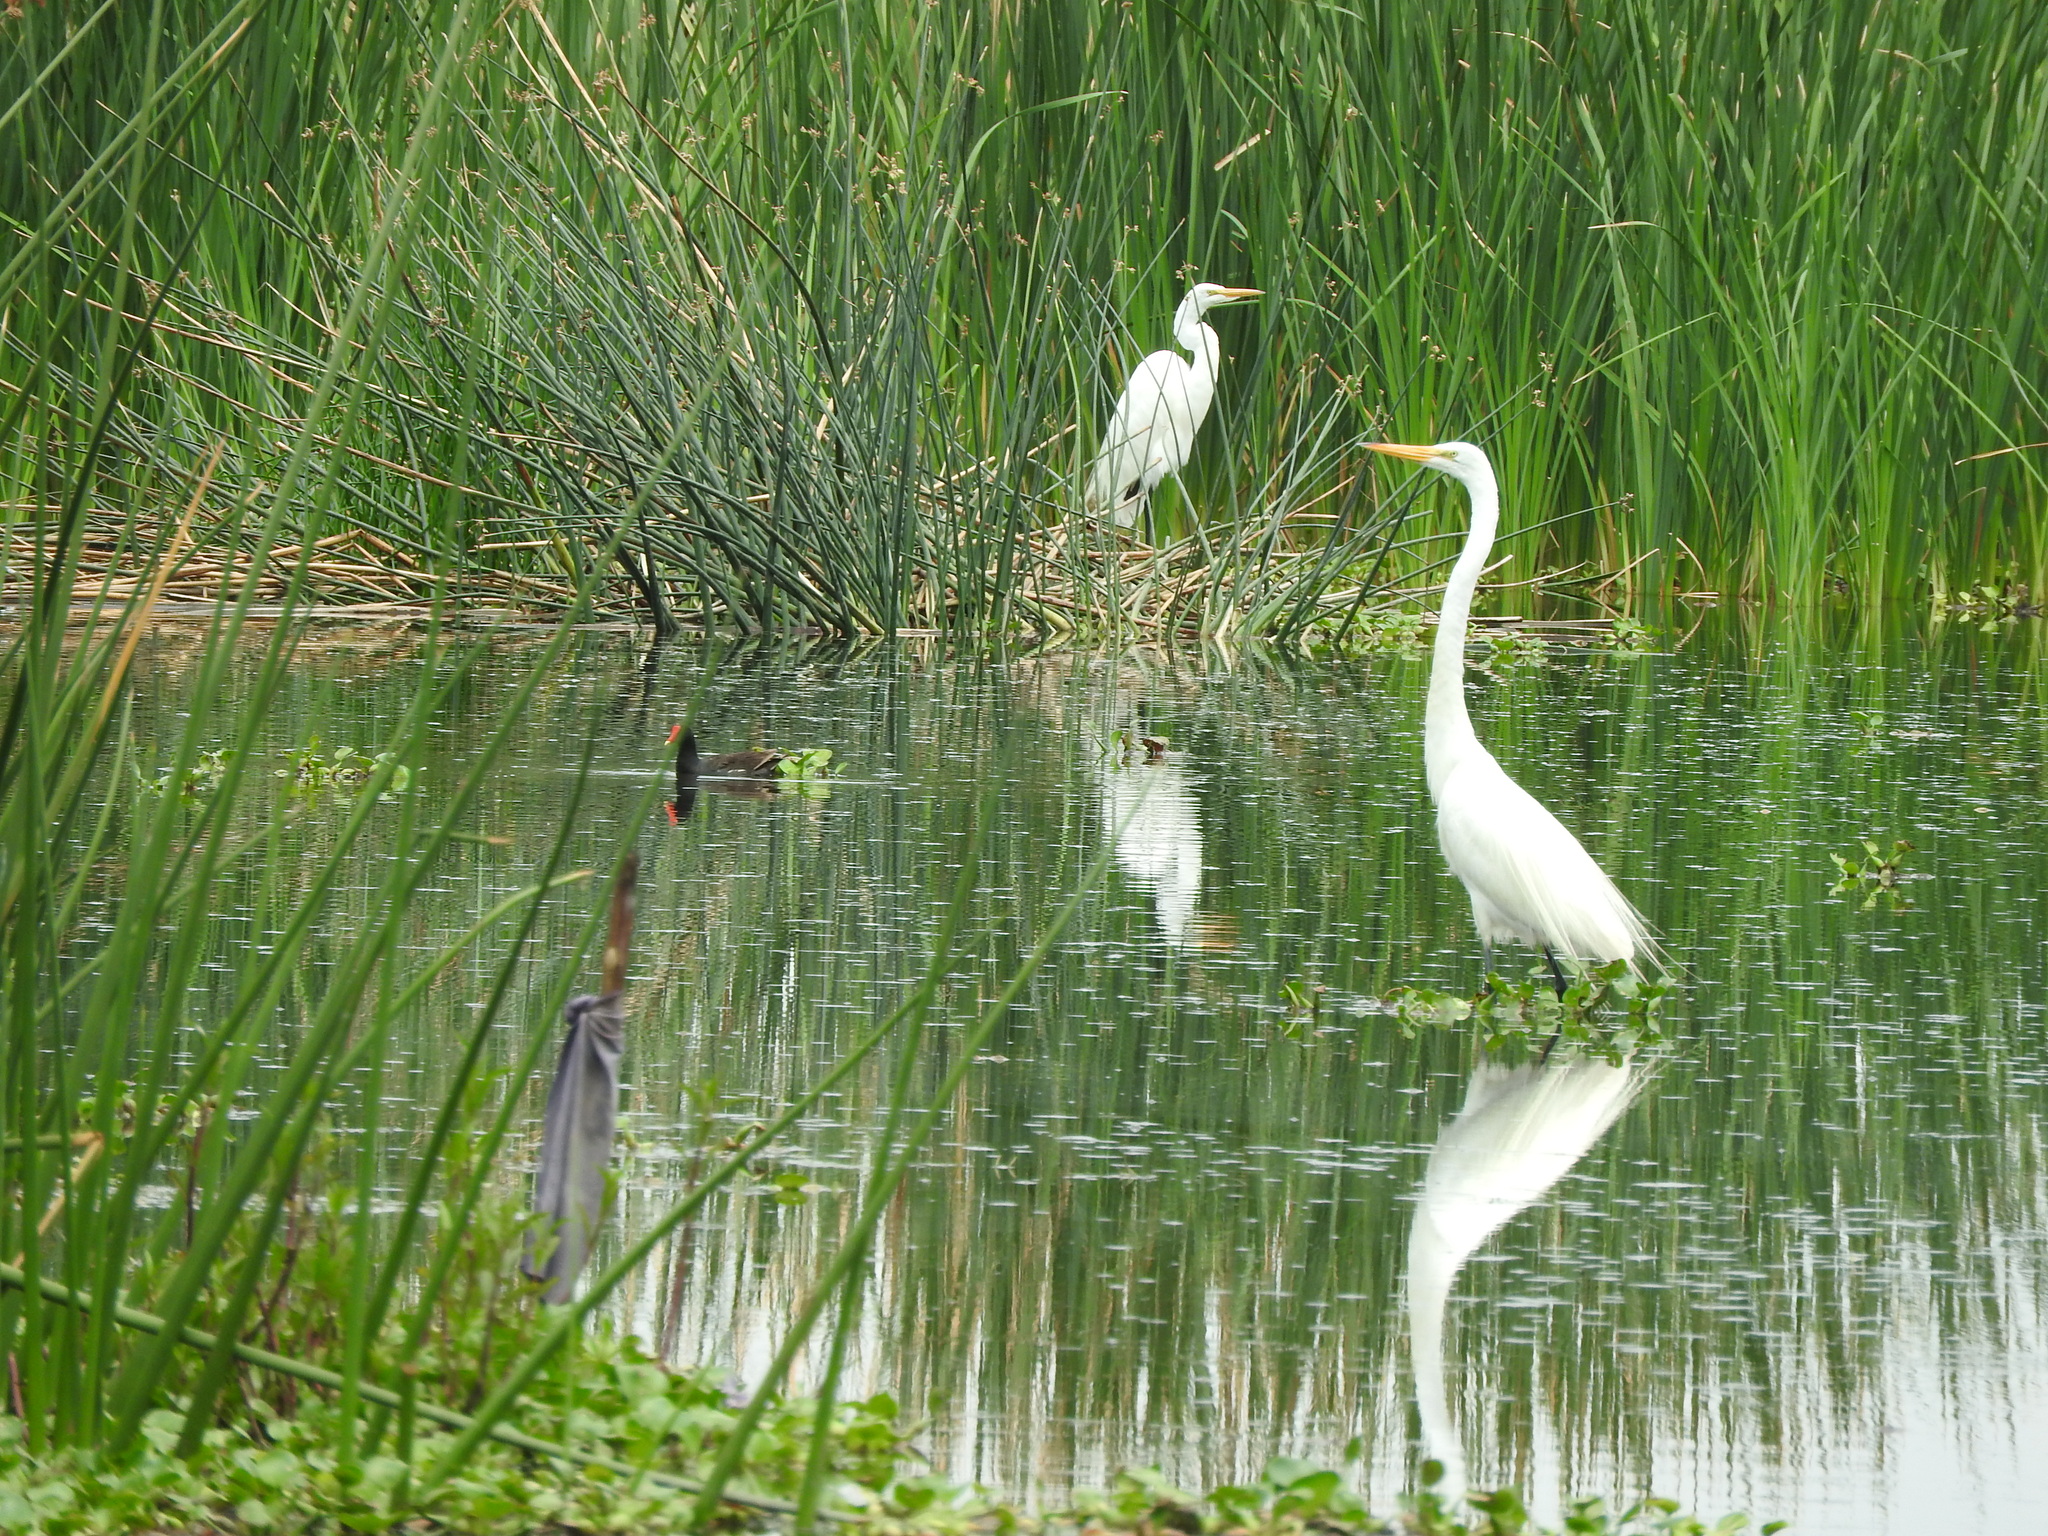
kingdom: Animalia
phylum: Chordata
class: Aves
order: Pelecaniformes
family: Ardeidae
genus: Ardea
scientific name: Ardea alba
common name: Great egret
